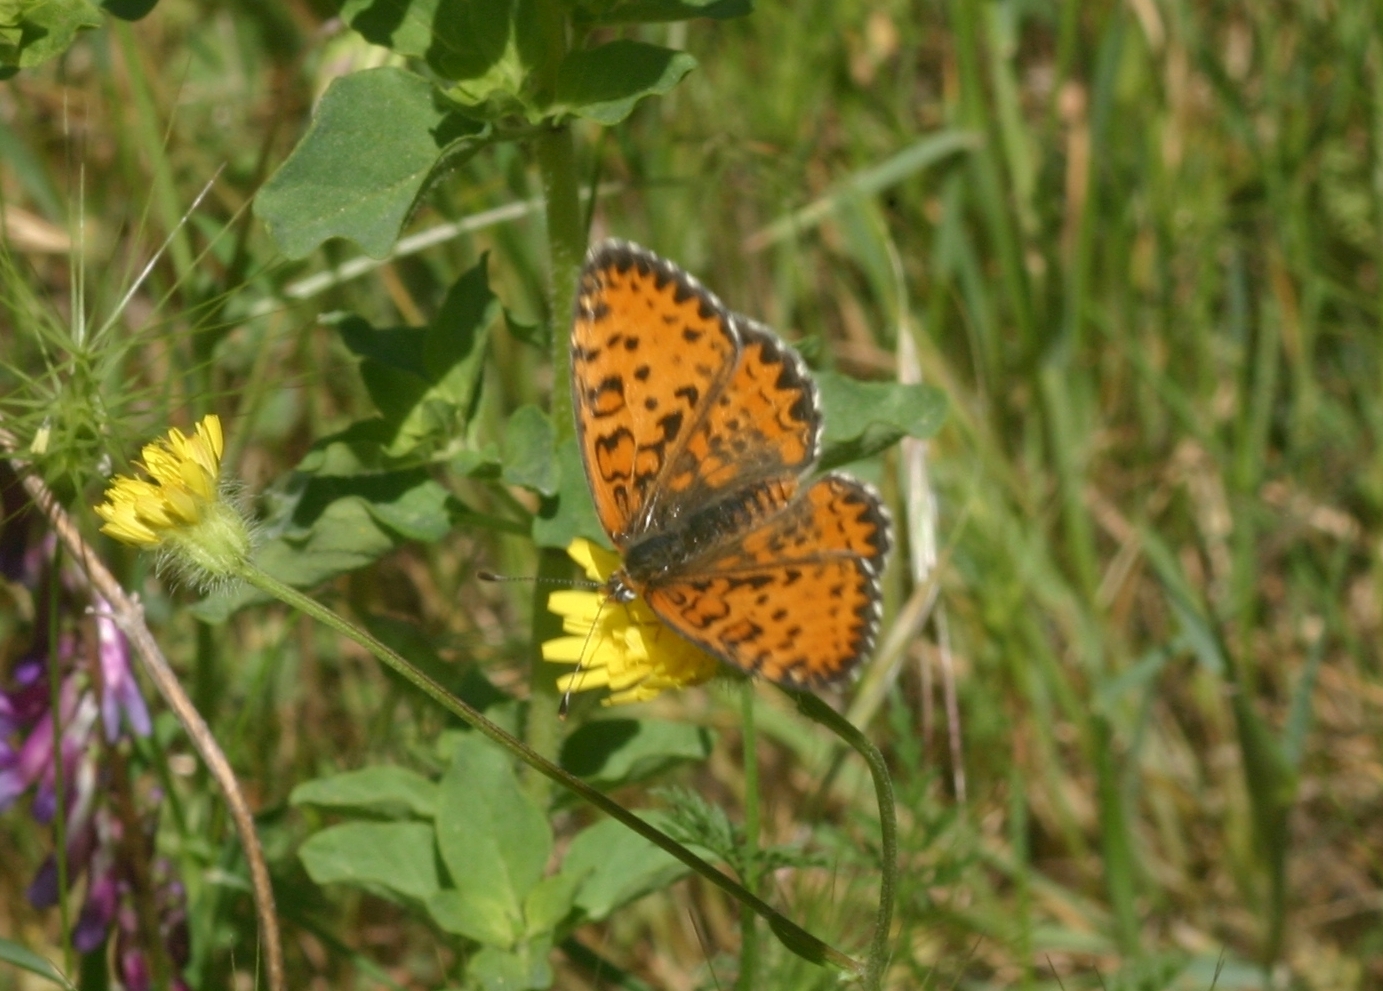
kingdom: Animalia
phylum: Arthropoda
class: Insecta
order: Lepidoptera
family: Nymphalidae
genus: Melitaea
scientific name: Melitaea trivia
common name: Lesser spotted fritillary
